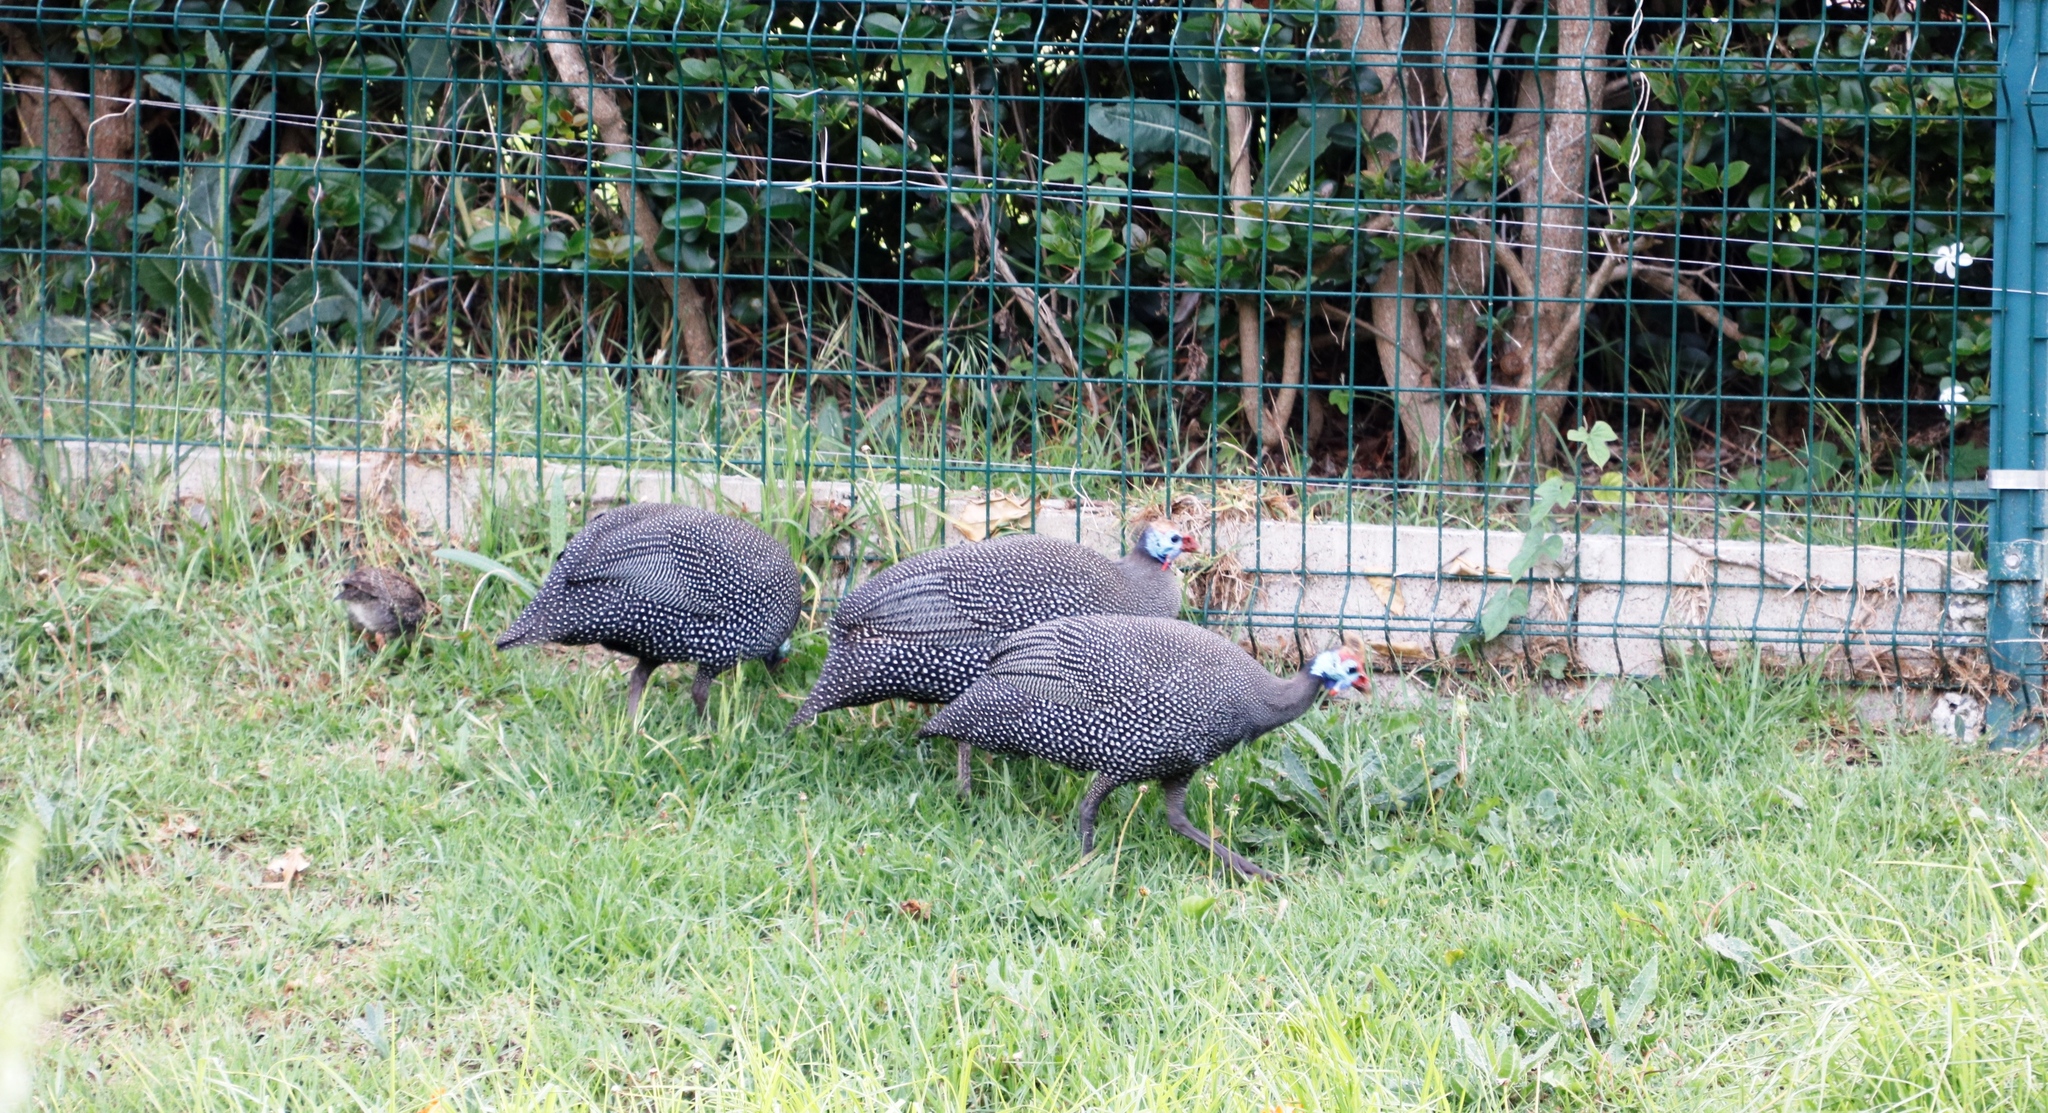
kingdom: Animalia
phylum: Chordata
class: Aves
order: Galliformes
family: Numididae
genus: Numida
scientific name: Numida meleagris
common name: Helmeted guineafowl
